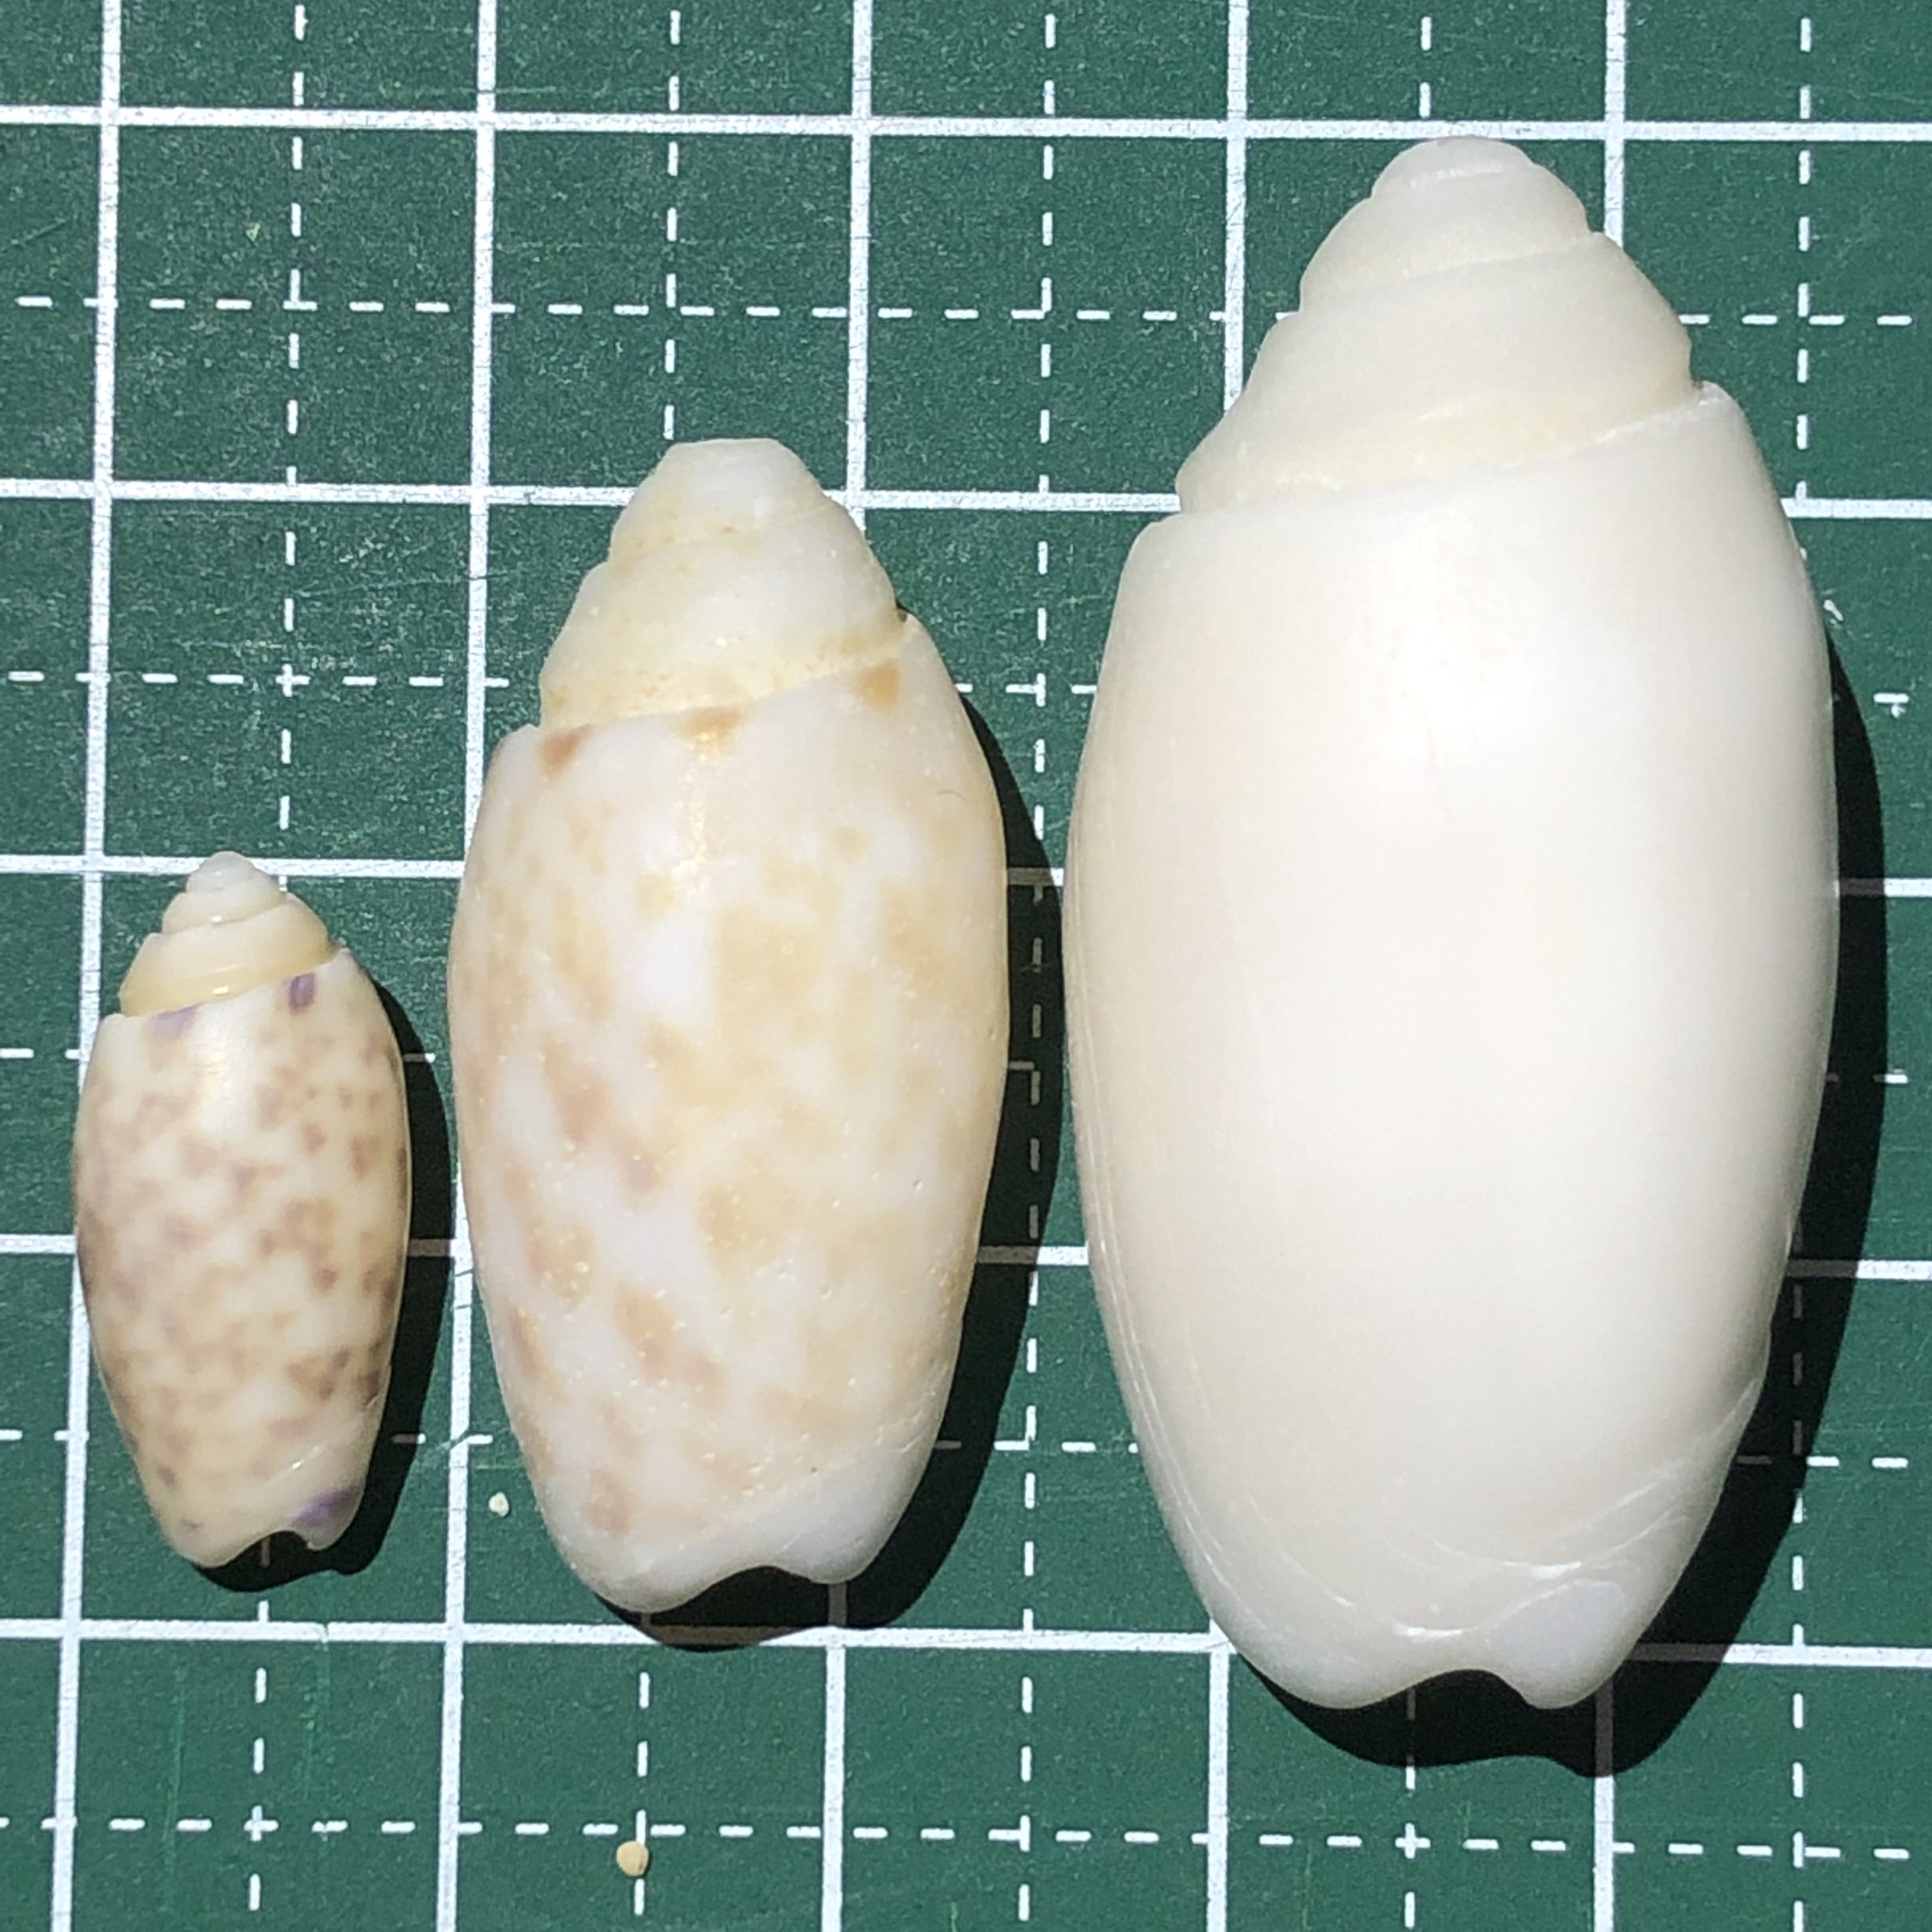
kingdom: Animalia
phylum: Mollusca
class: Gastropoda
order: Neogastropoda
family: Olividae
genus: Oliva
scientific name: Oliva amethystina
